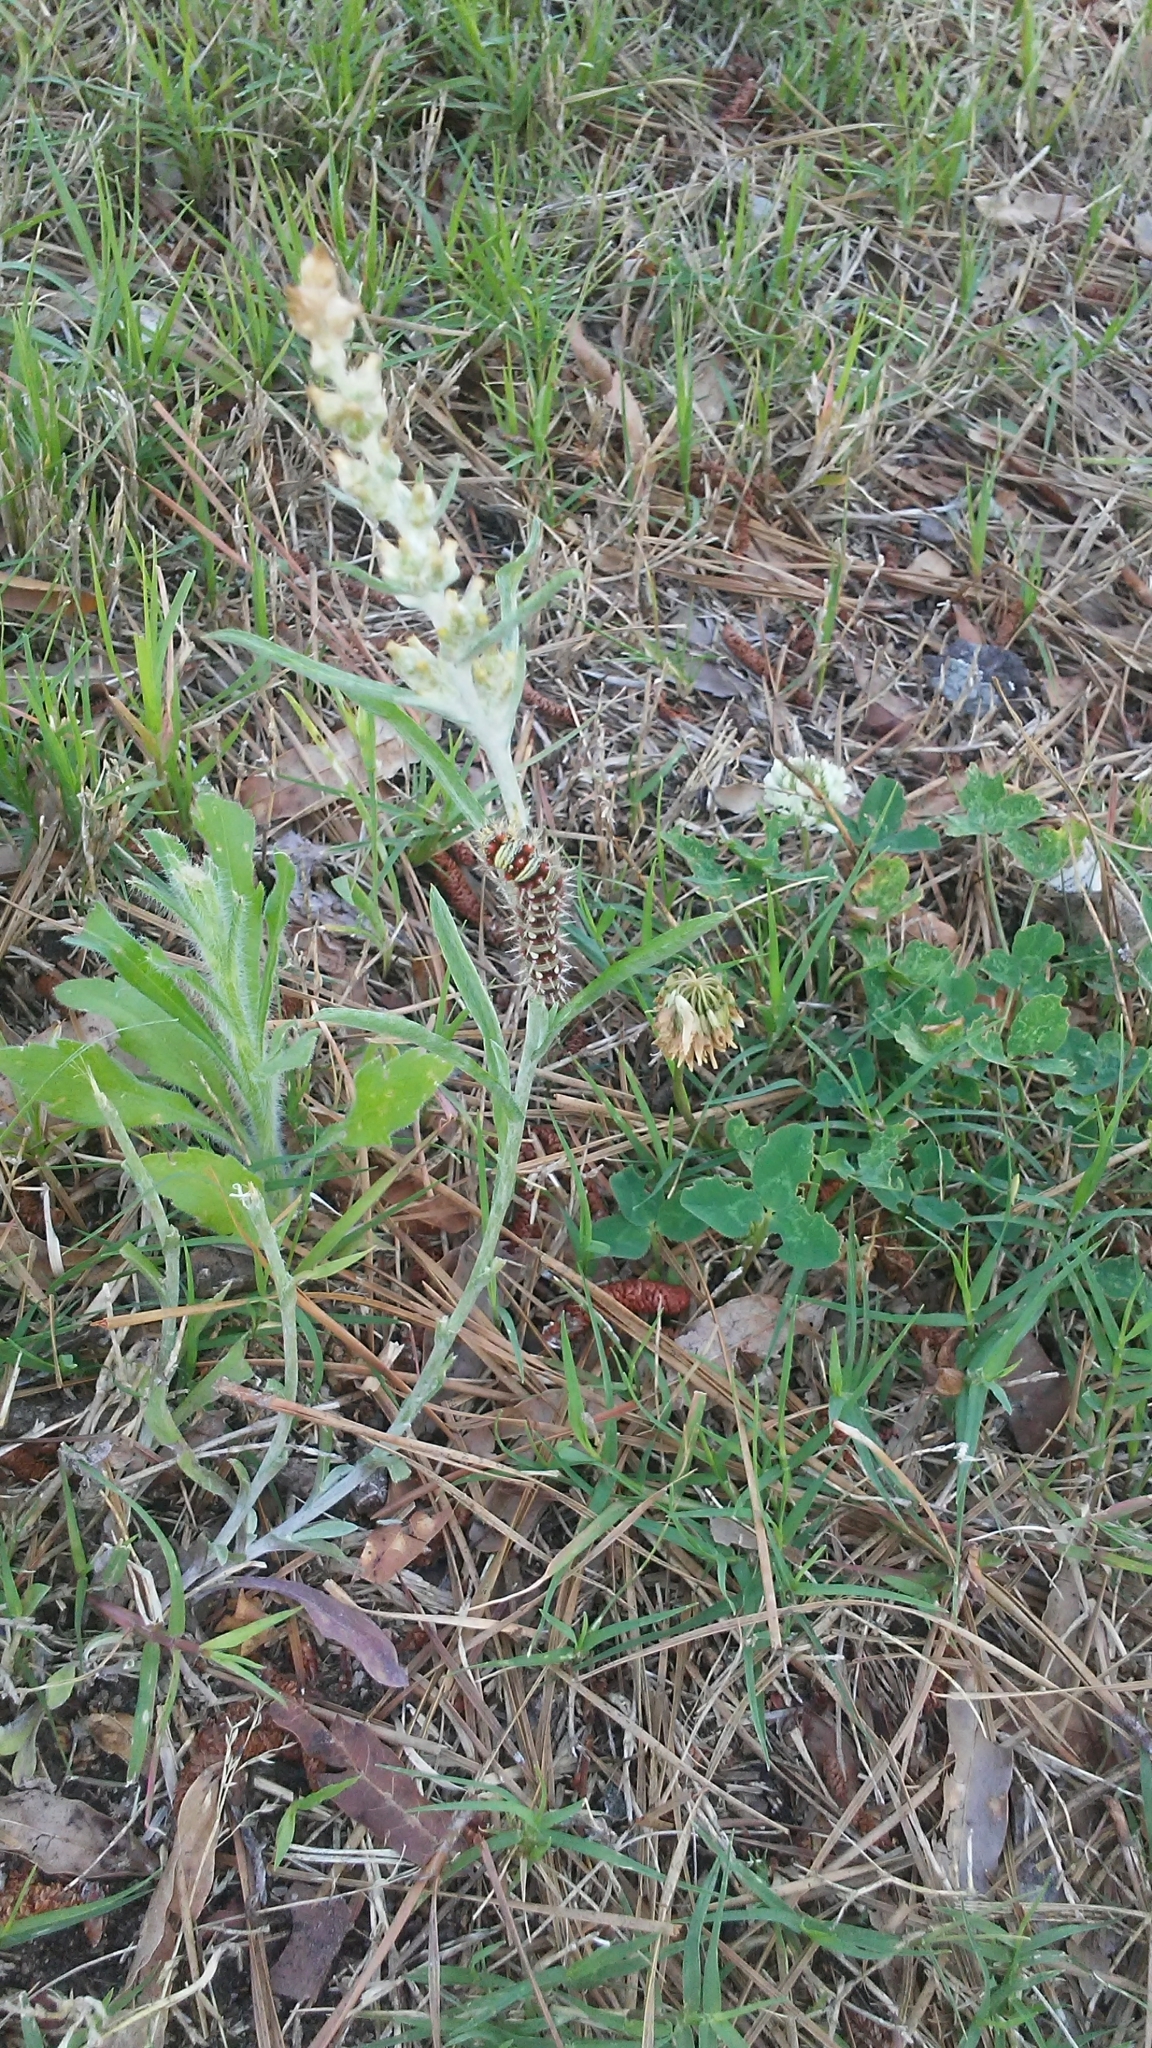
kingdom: Animalia
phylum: Arthropoda
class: Insecta
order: Lepidoptera
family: Nymphalidae
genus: Vanessa
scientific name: Vanessa virginiensis
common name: American lady
